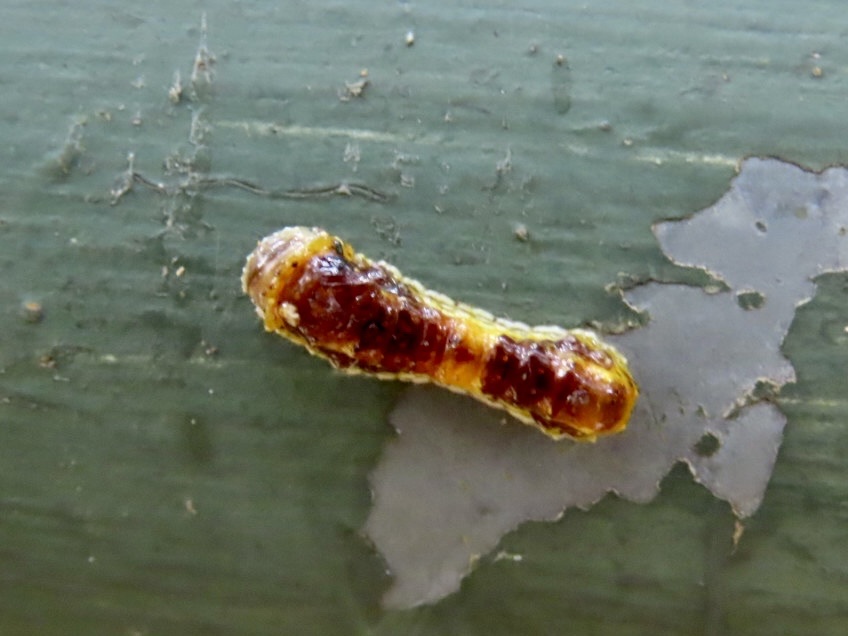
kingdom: Animalia
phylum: Arthropoda
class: Insecta
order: Lepidoptera
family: Phaudidae
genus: Phauda
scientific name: Phauda flammans
